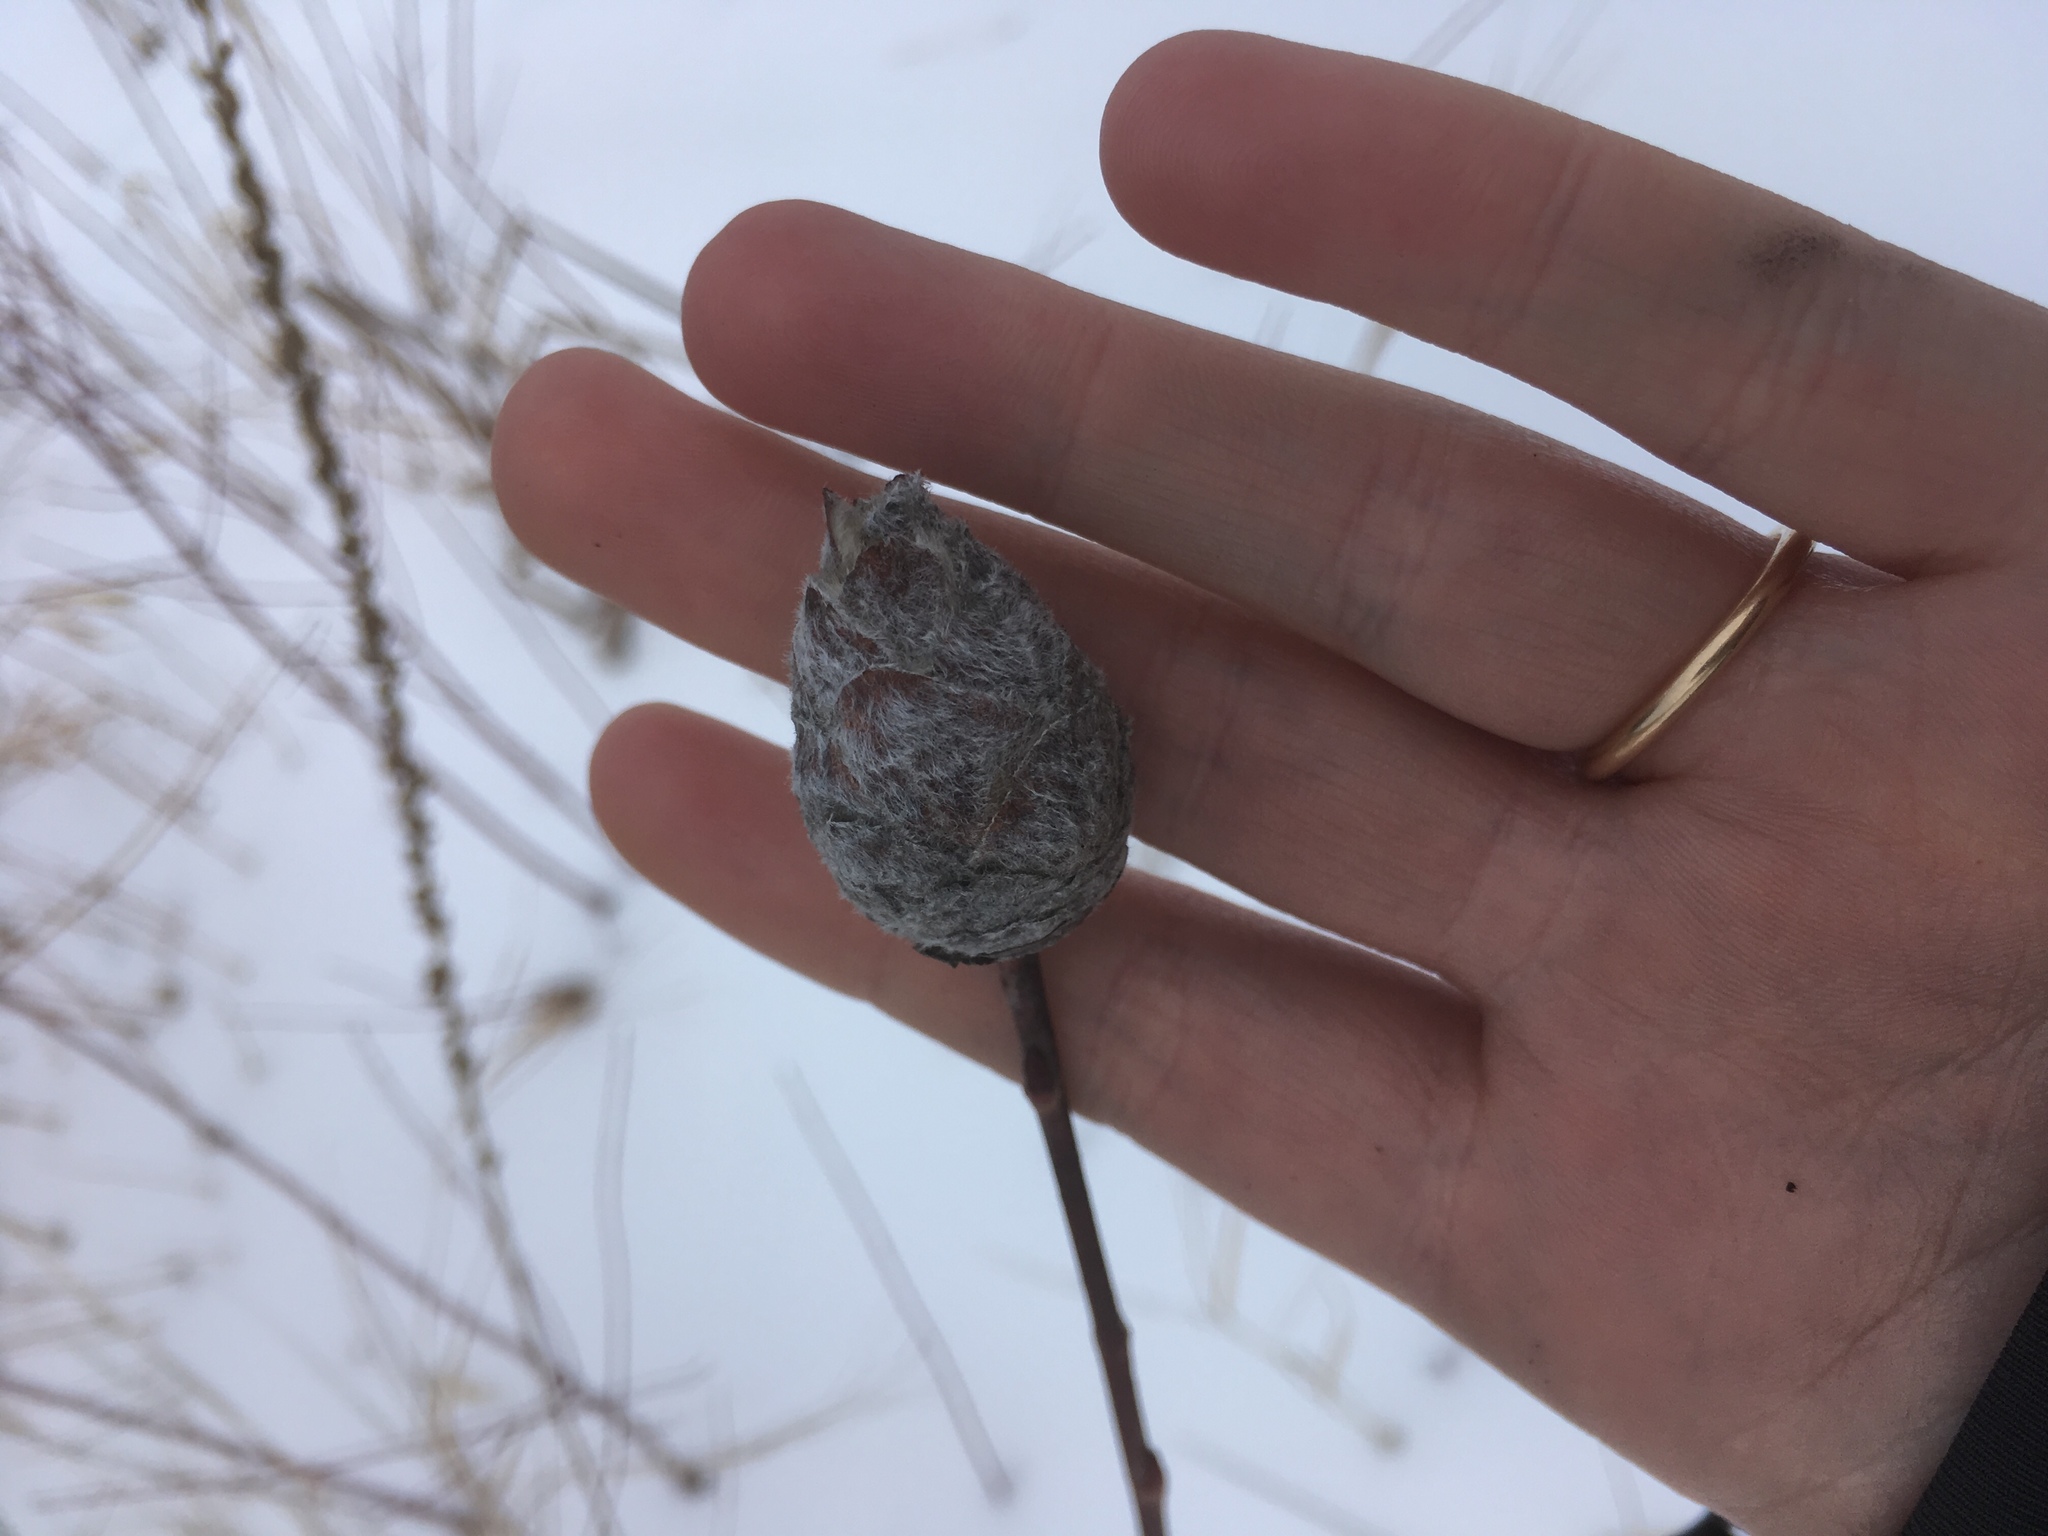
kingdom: Animalia
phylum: Arthropoda
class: Insecta
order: Diptera
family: Cecidomyiidae
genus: Rabdophaga
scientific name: Rabdophaga strobiloides
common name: Willow pinecone gall midge
